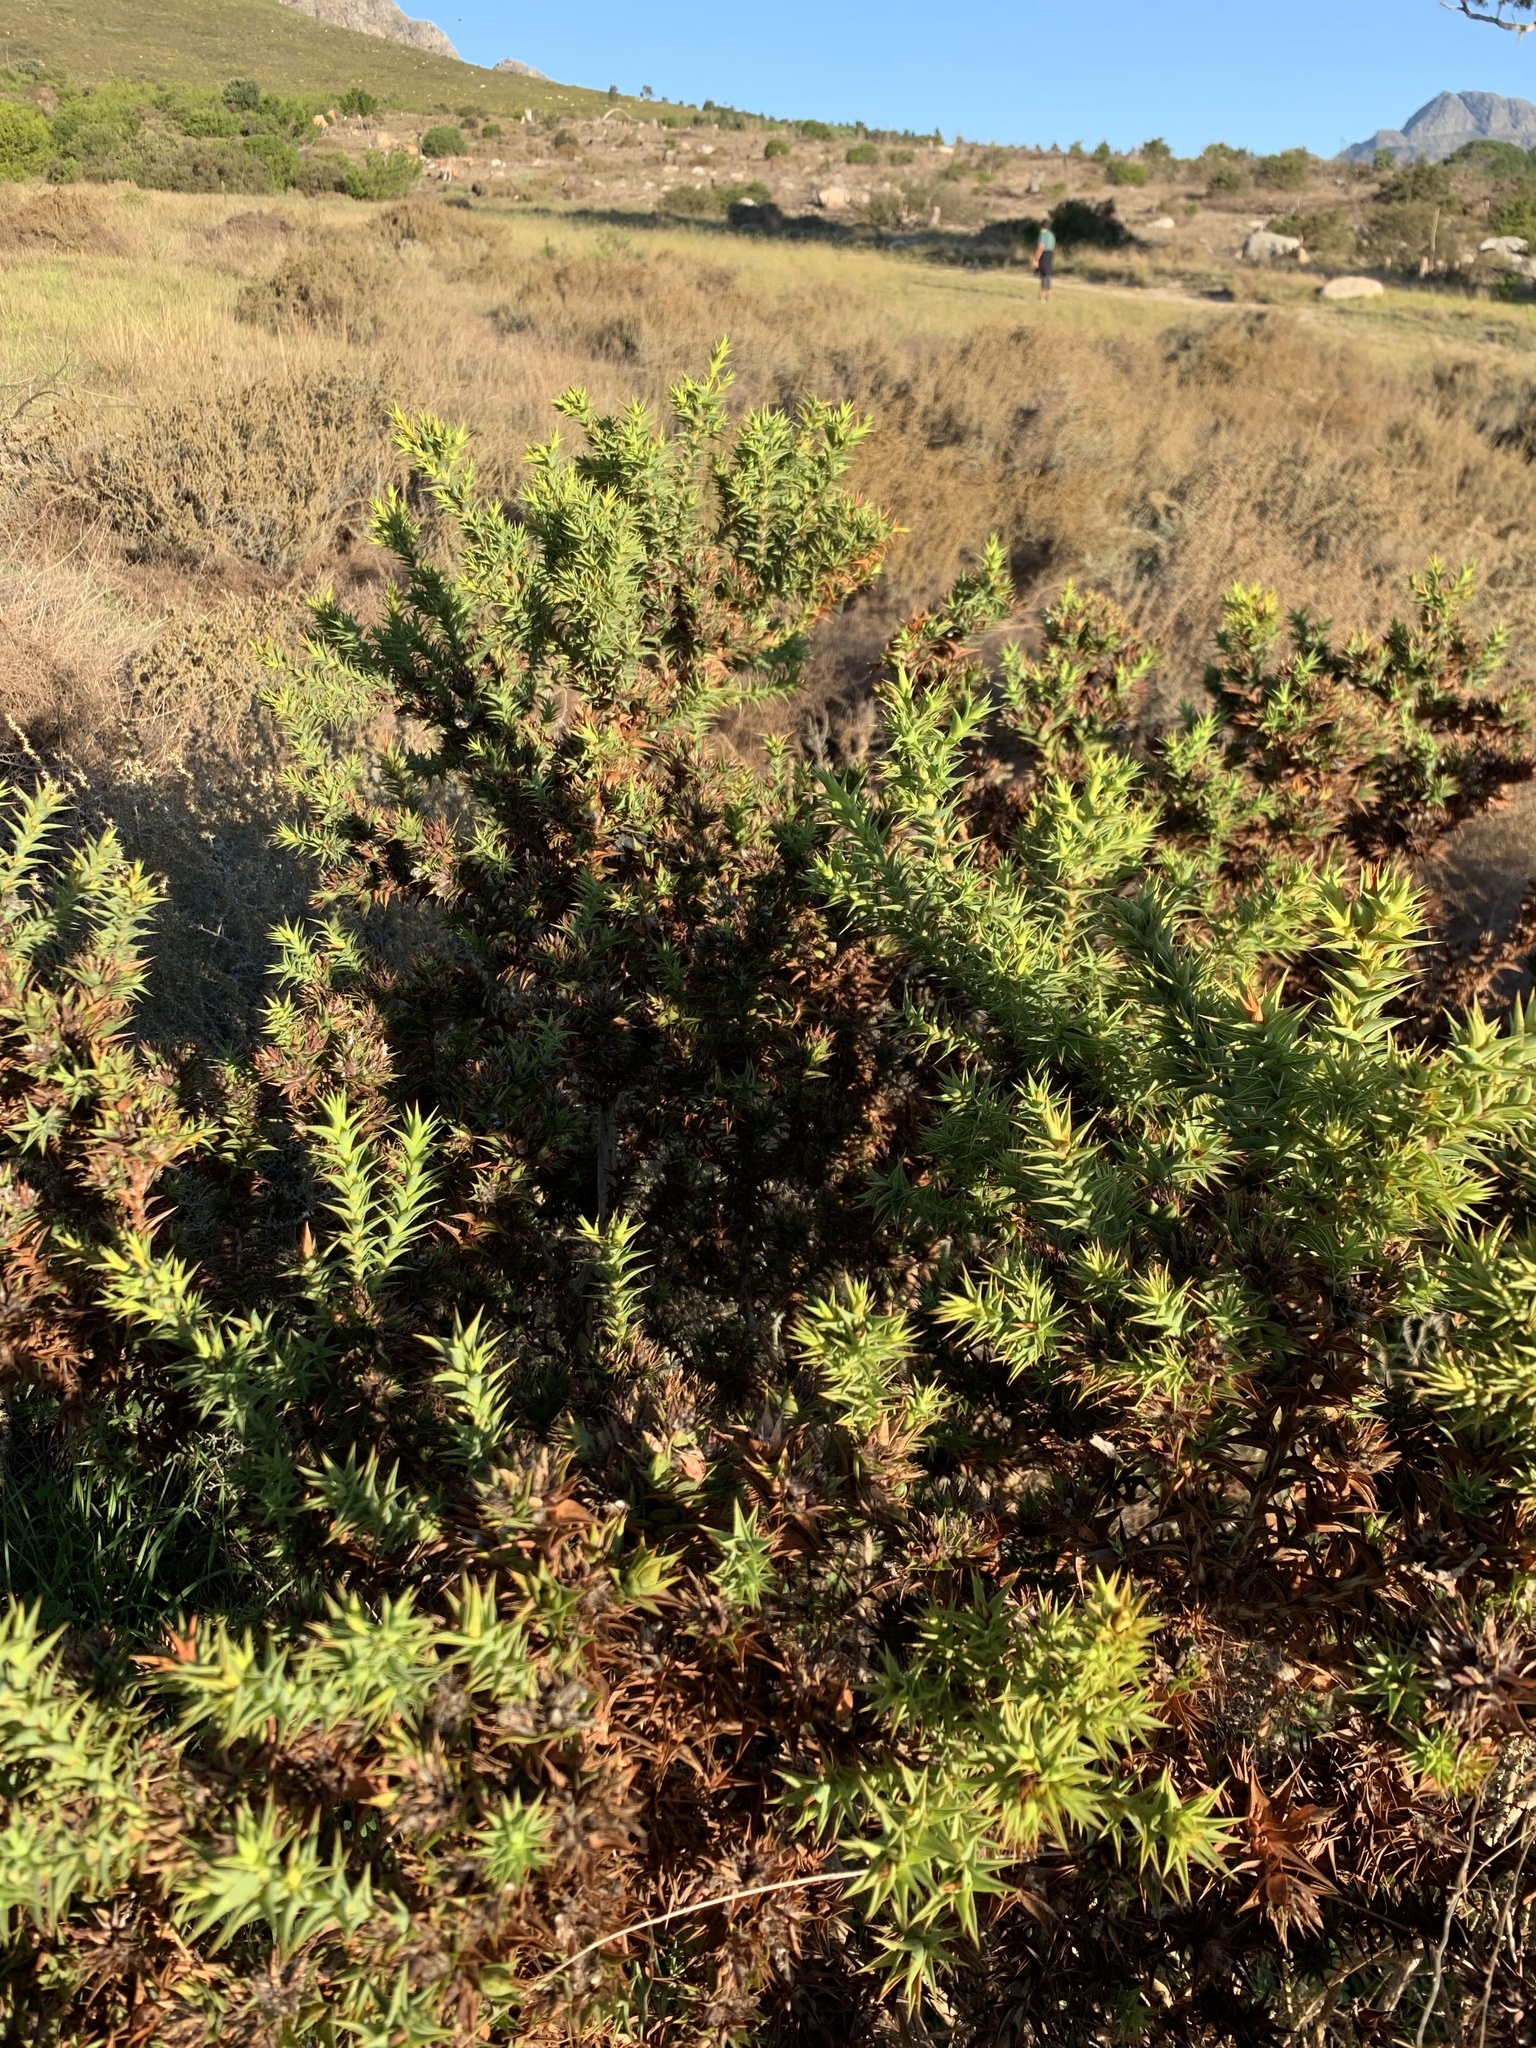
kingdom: Plantae
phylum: Tracheophyta
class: Magnoliopsida
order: Fabales
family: Fabaceae
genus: Aspalathus
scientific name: Aspalathus cordata
